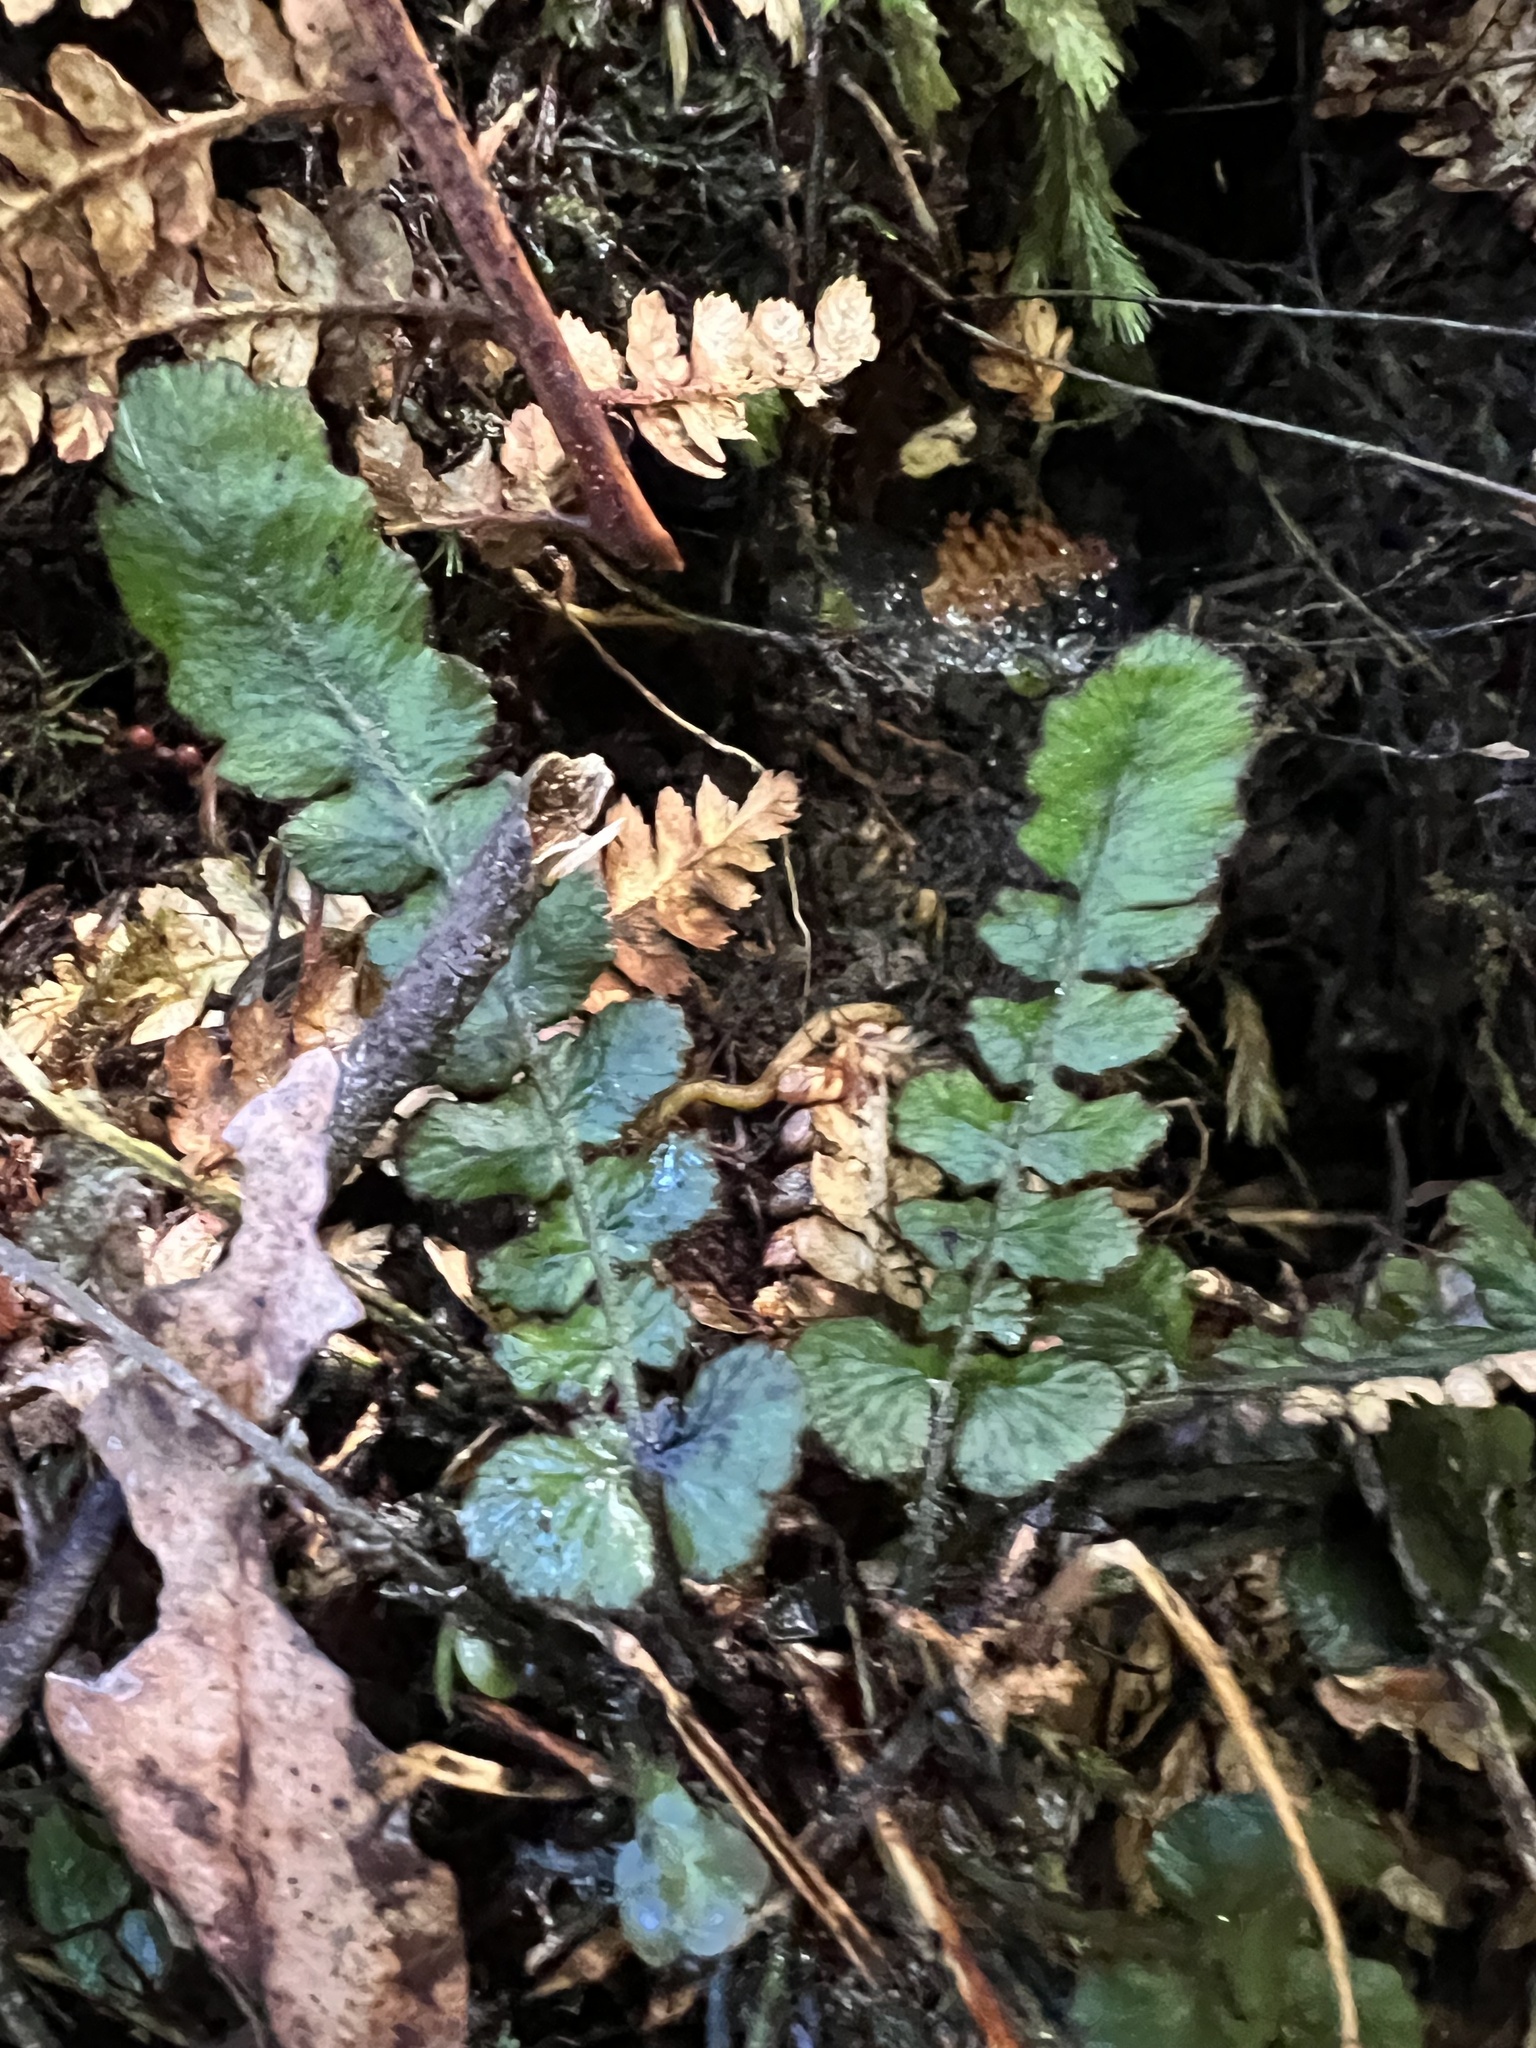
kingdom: Plantae
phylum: Tracheophyta
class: Polypodiopsida
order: Polypodiales
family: Blechnaceae
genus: Cranfillia
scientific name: Cranfillia nigra
